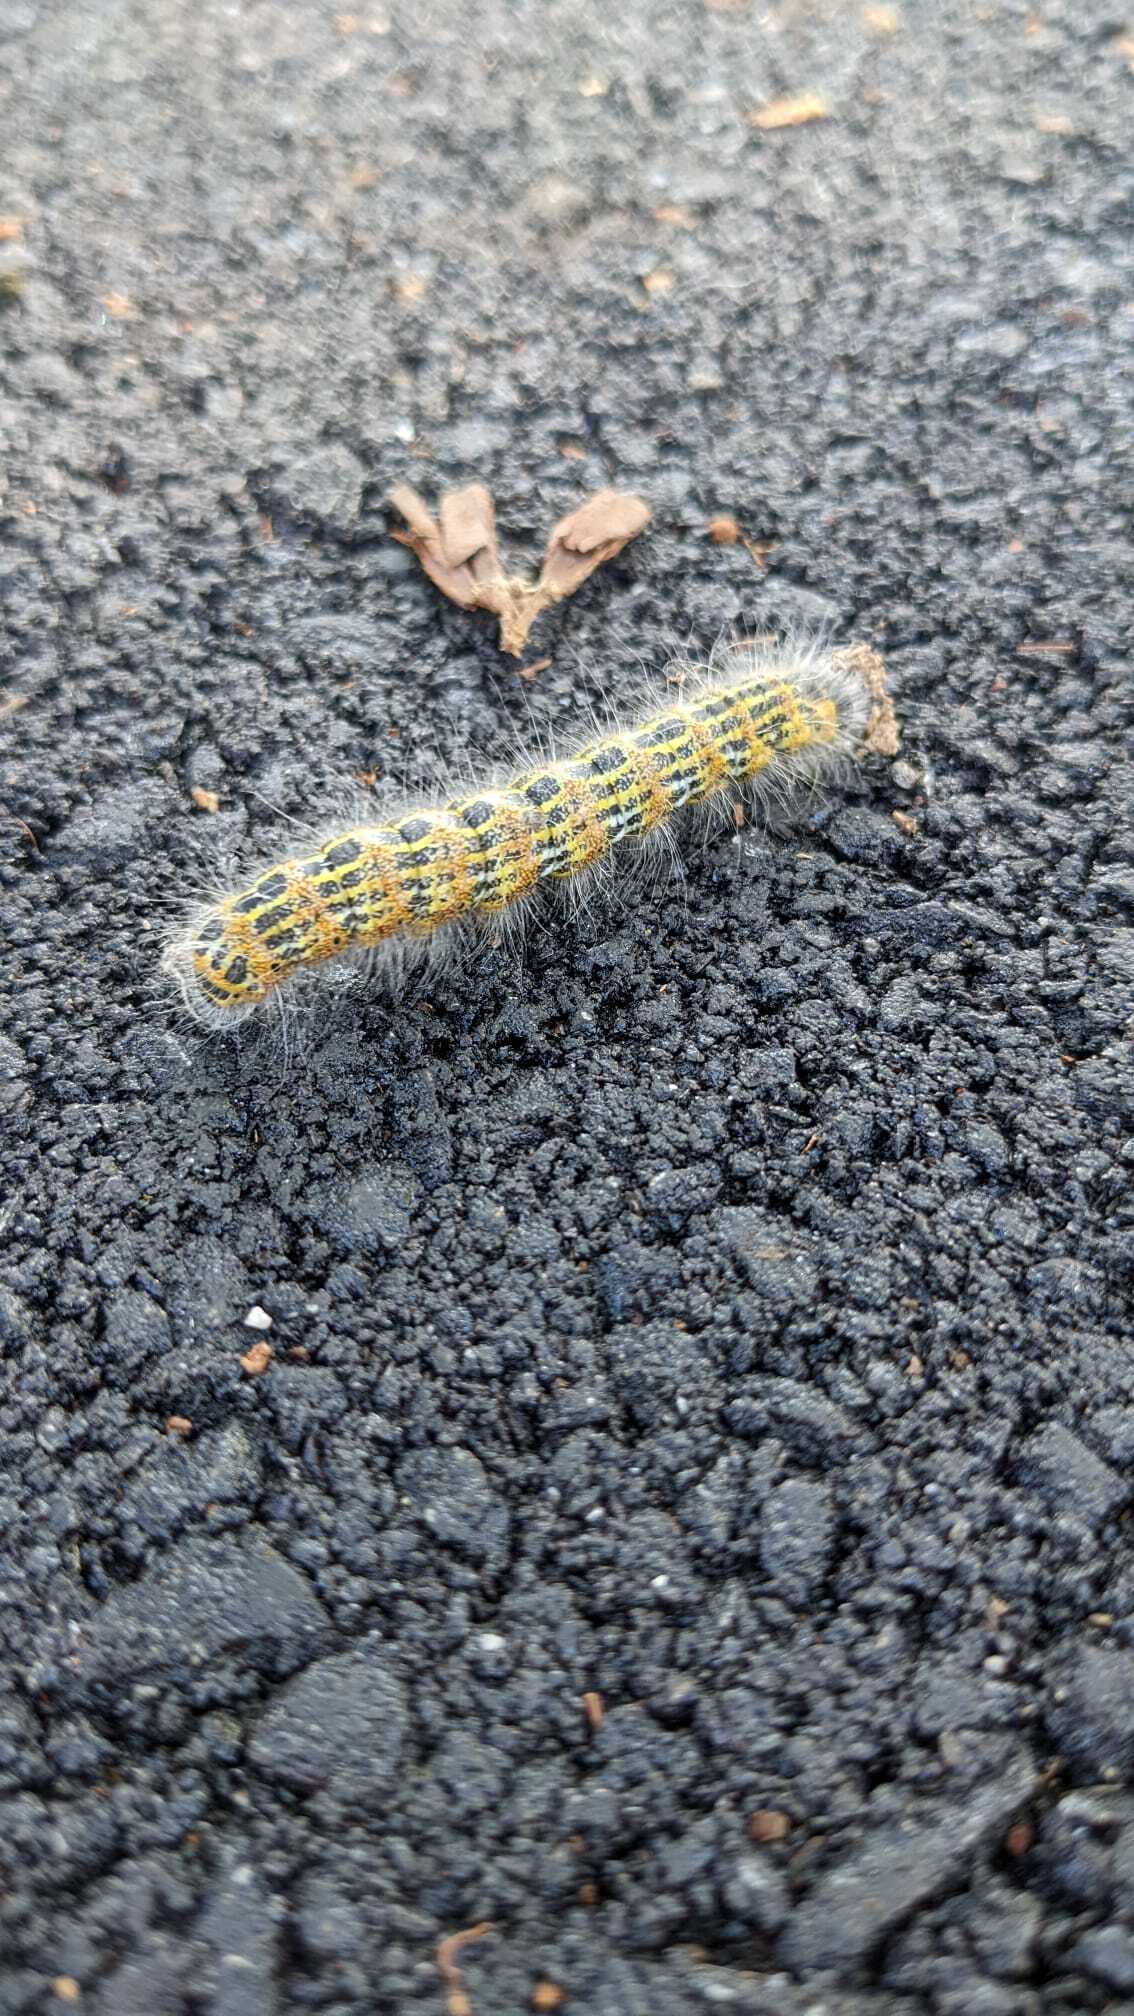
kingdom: Animalia
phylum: Arthropoda
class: Insecta
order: Lepidoptera
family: Notodontidae
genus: Phalera
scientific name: Phalera bucephala
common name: Buff-tip
